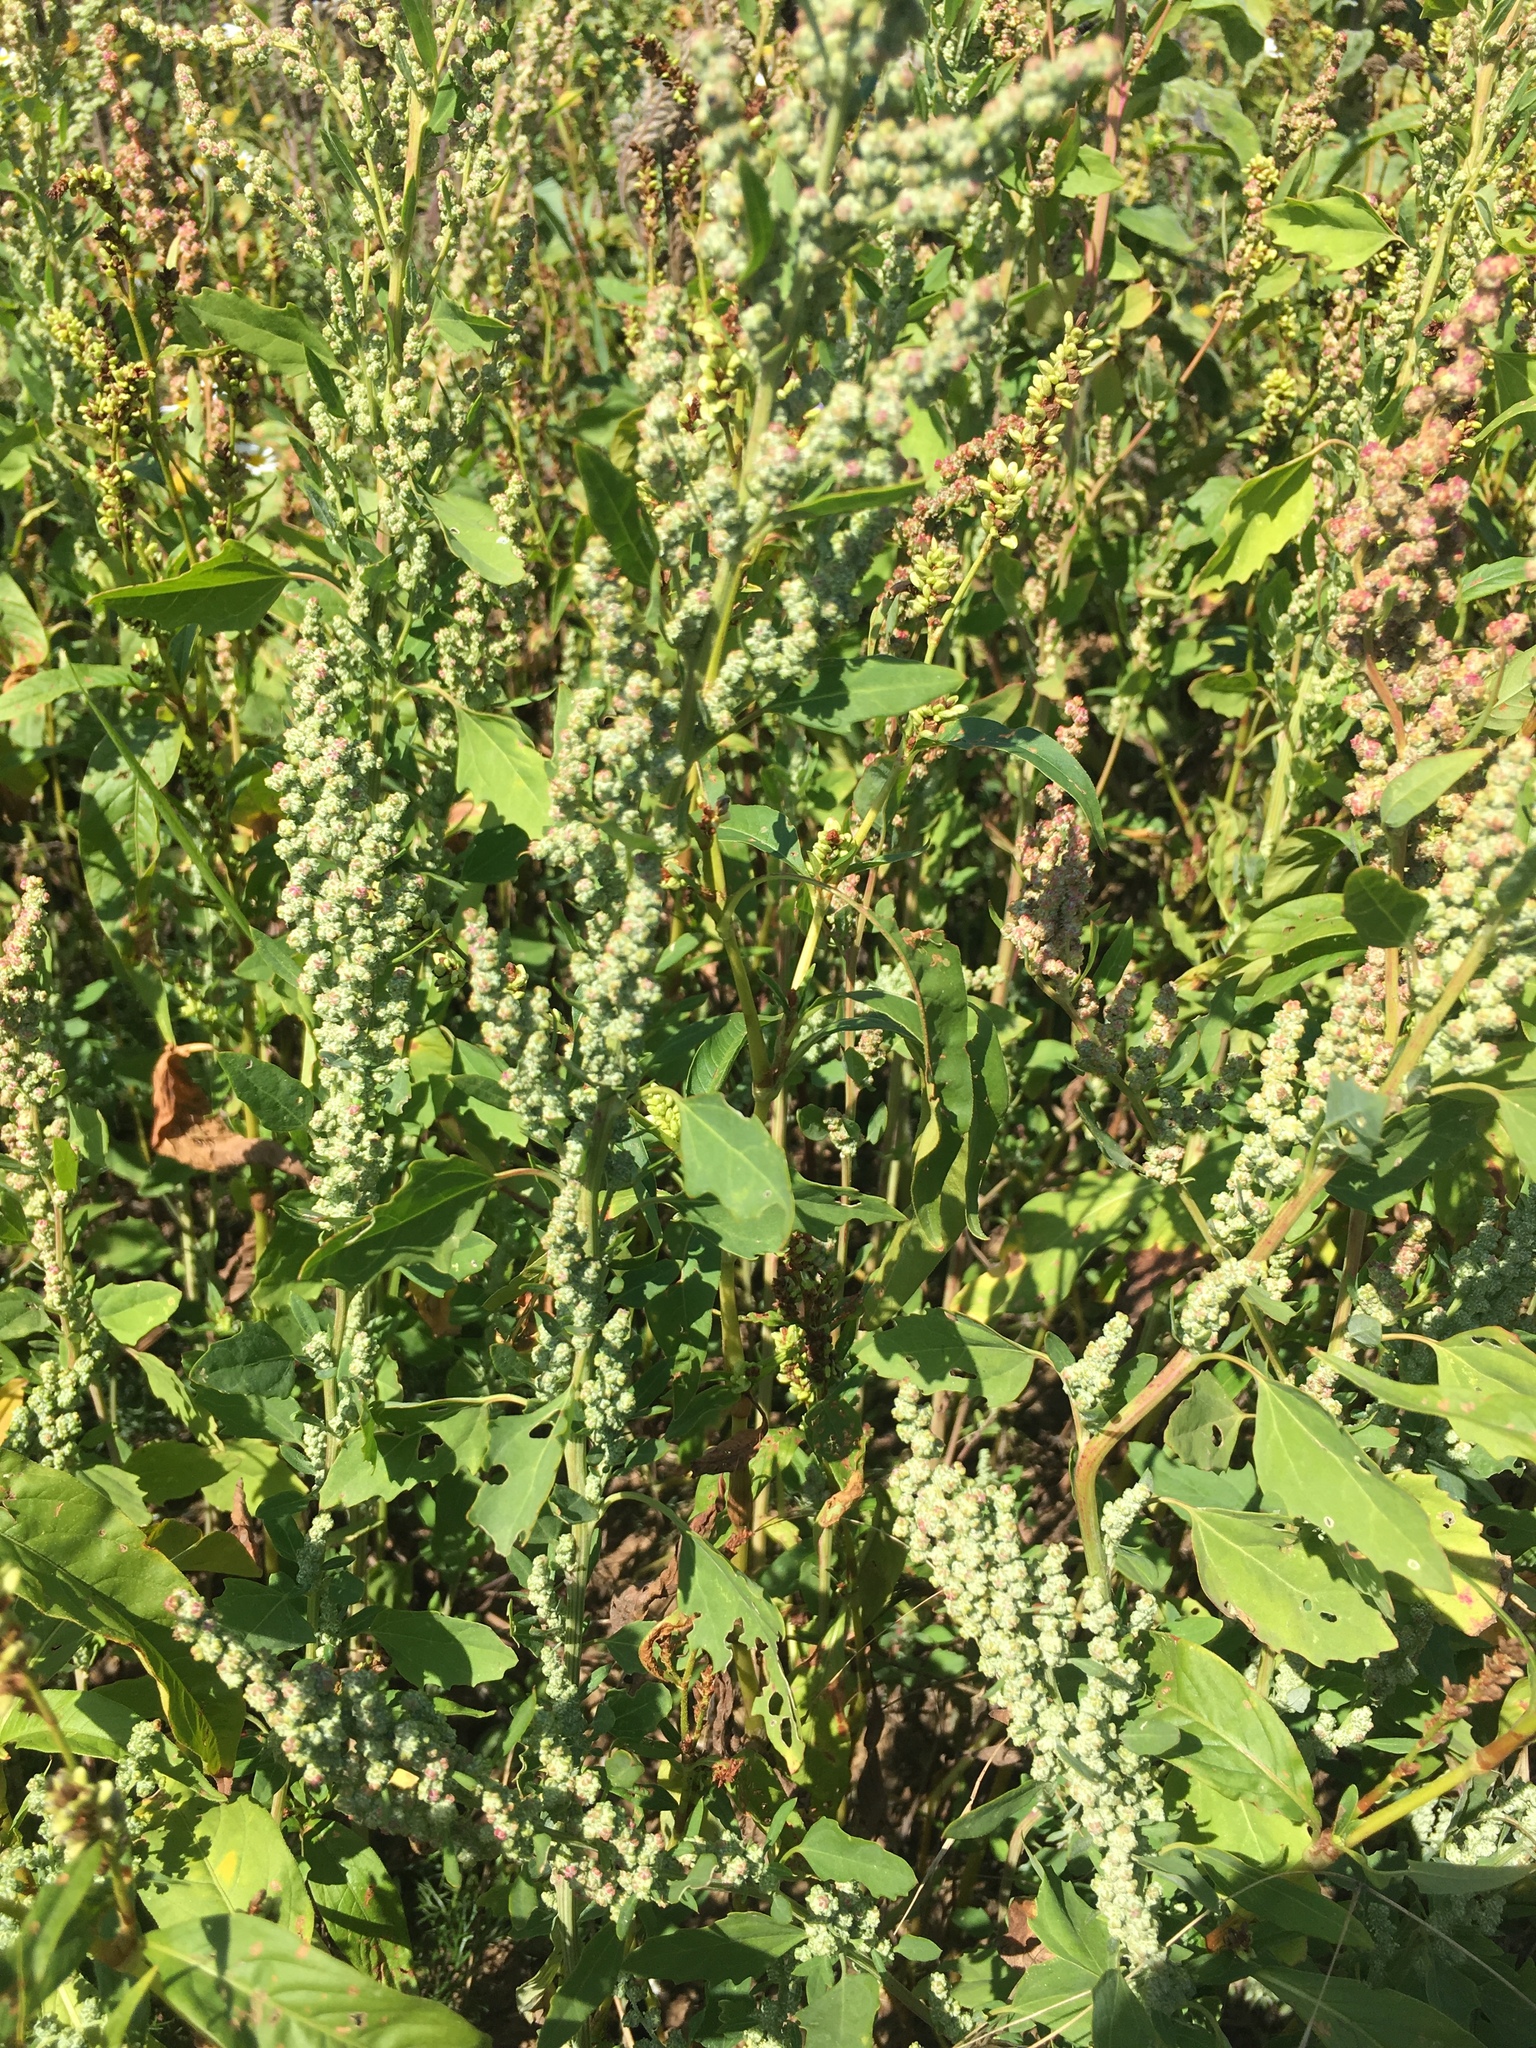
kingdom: Plantae
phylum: Tracheophyta
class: Magnoliopsida
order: Caryophyllales
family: Amaranthaceae
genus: Chenopodium
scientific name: Chenopodium album
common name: Fat-hen
